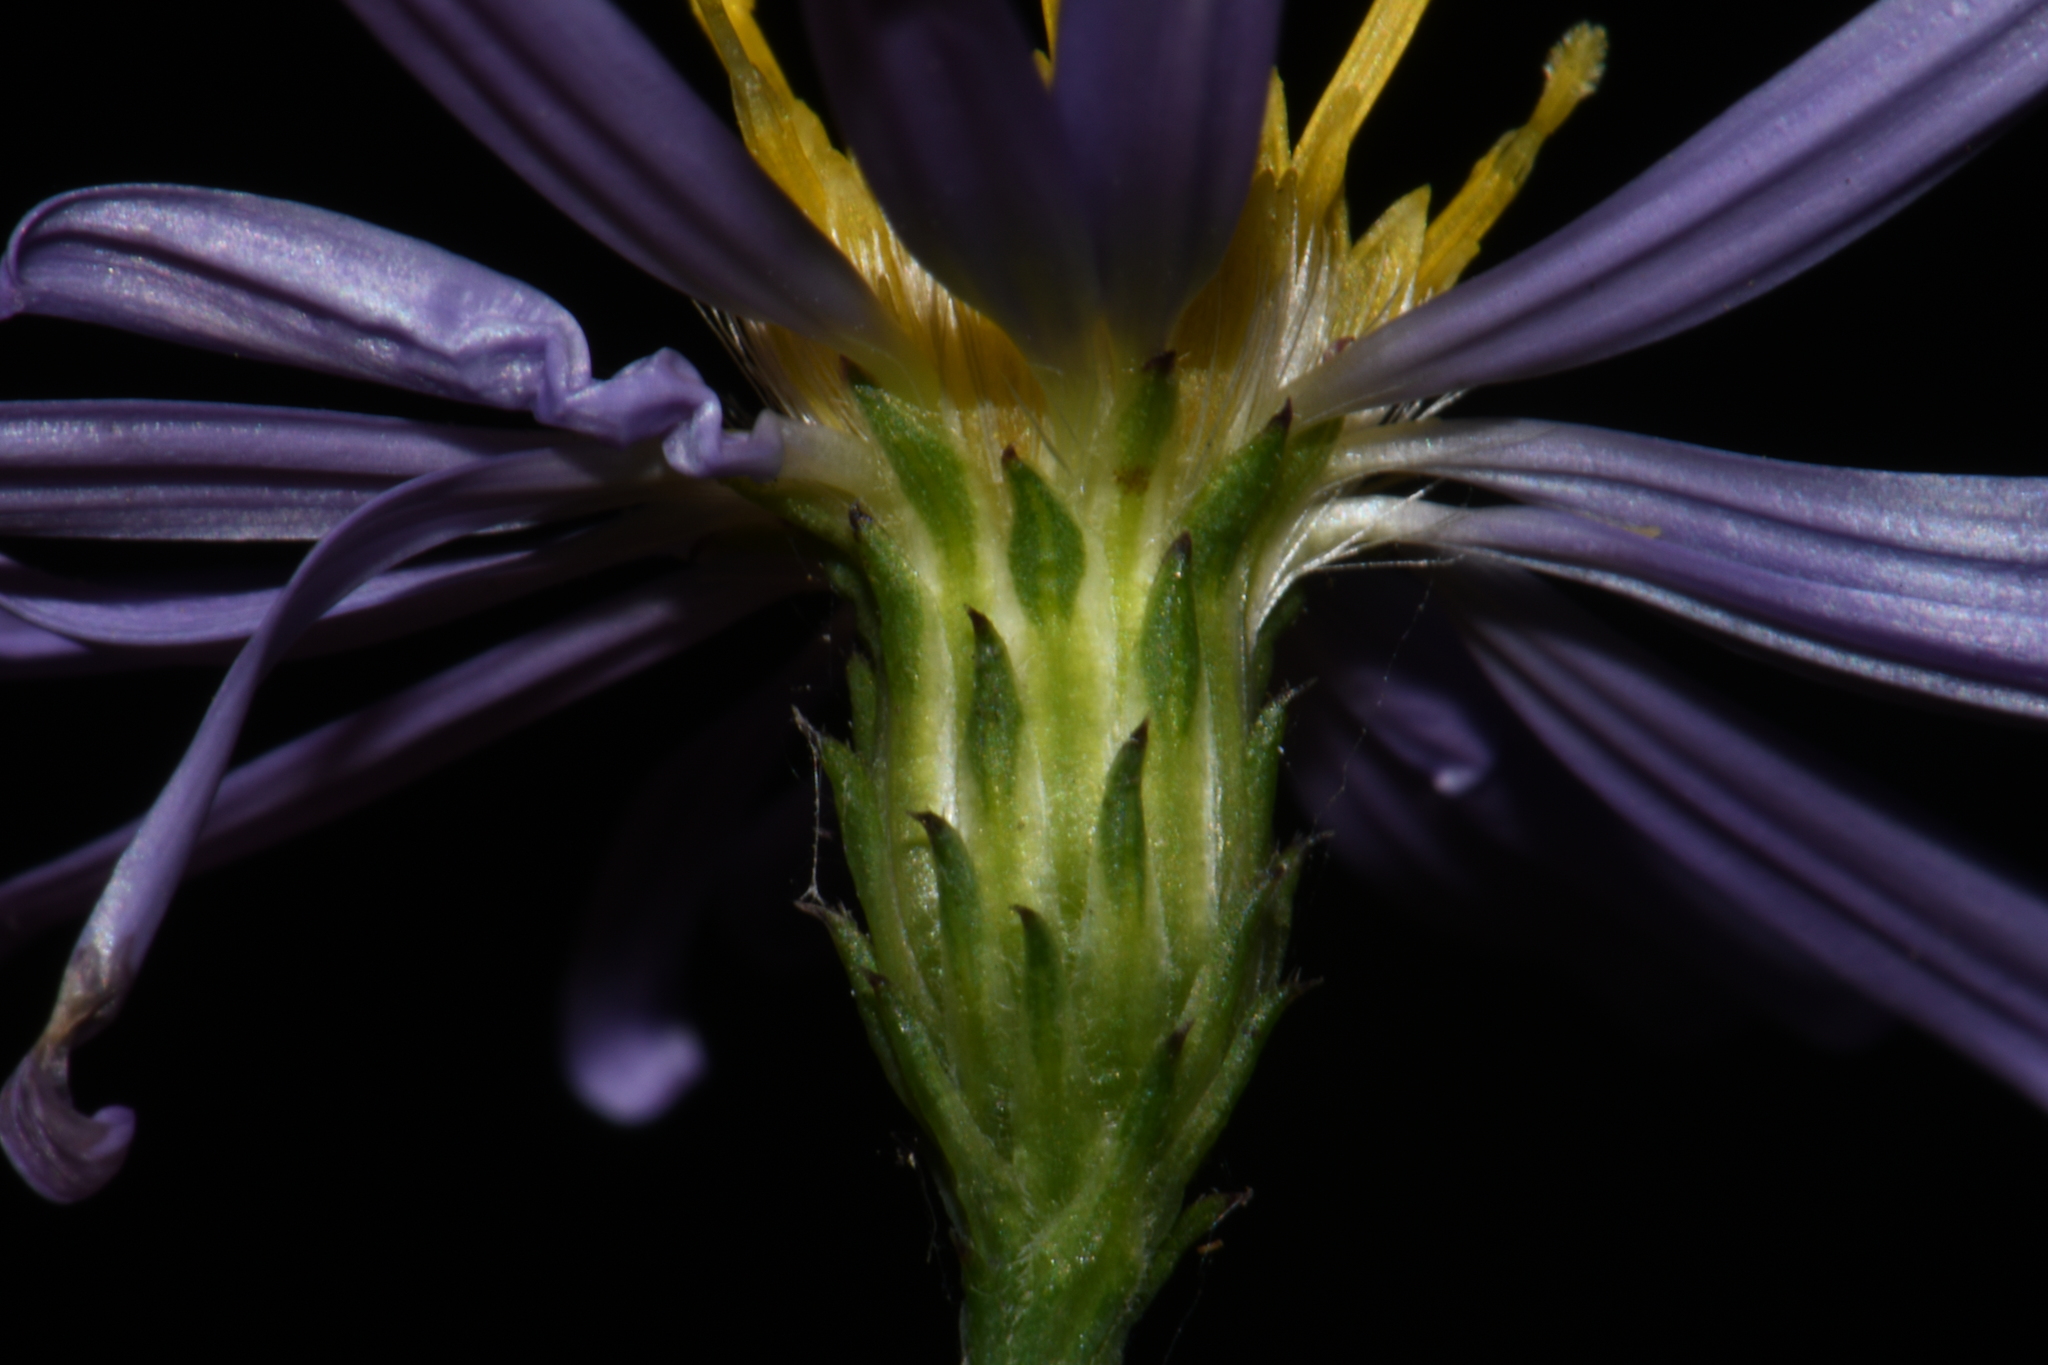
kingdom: Plantae
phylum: Tracheophyta
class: Magnoliopsida
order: Asterales
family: Asteraceae
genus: Symphyotrichum
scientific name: Symphyotrichum laeve
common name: Glaucous aster
